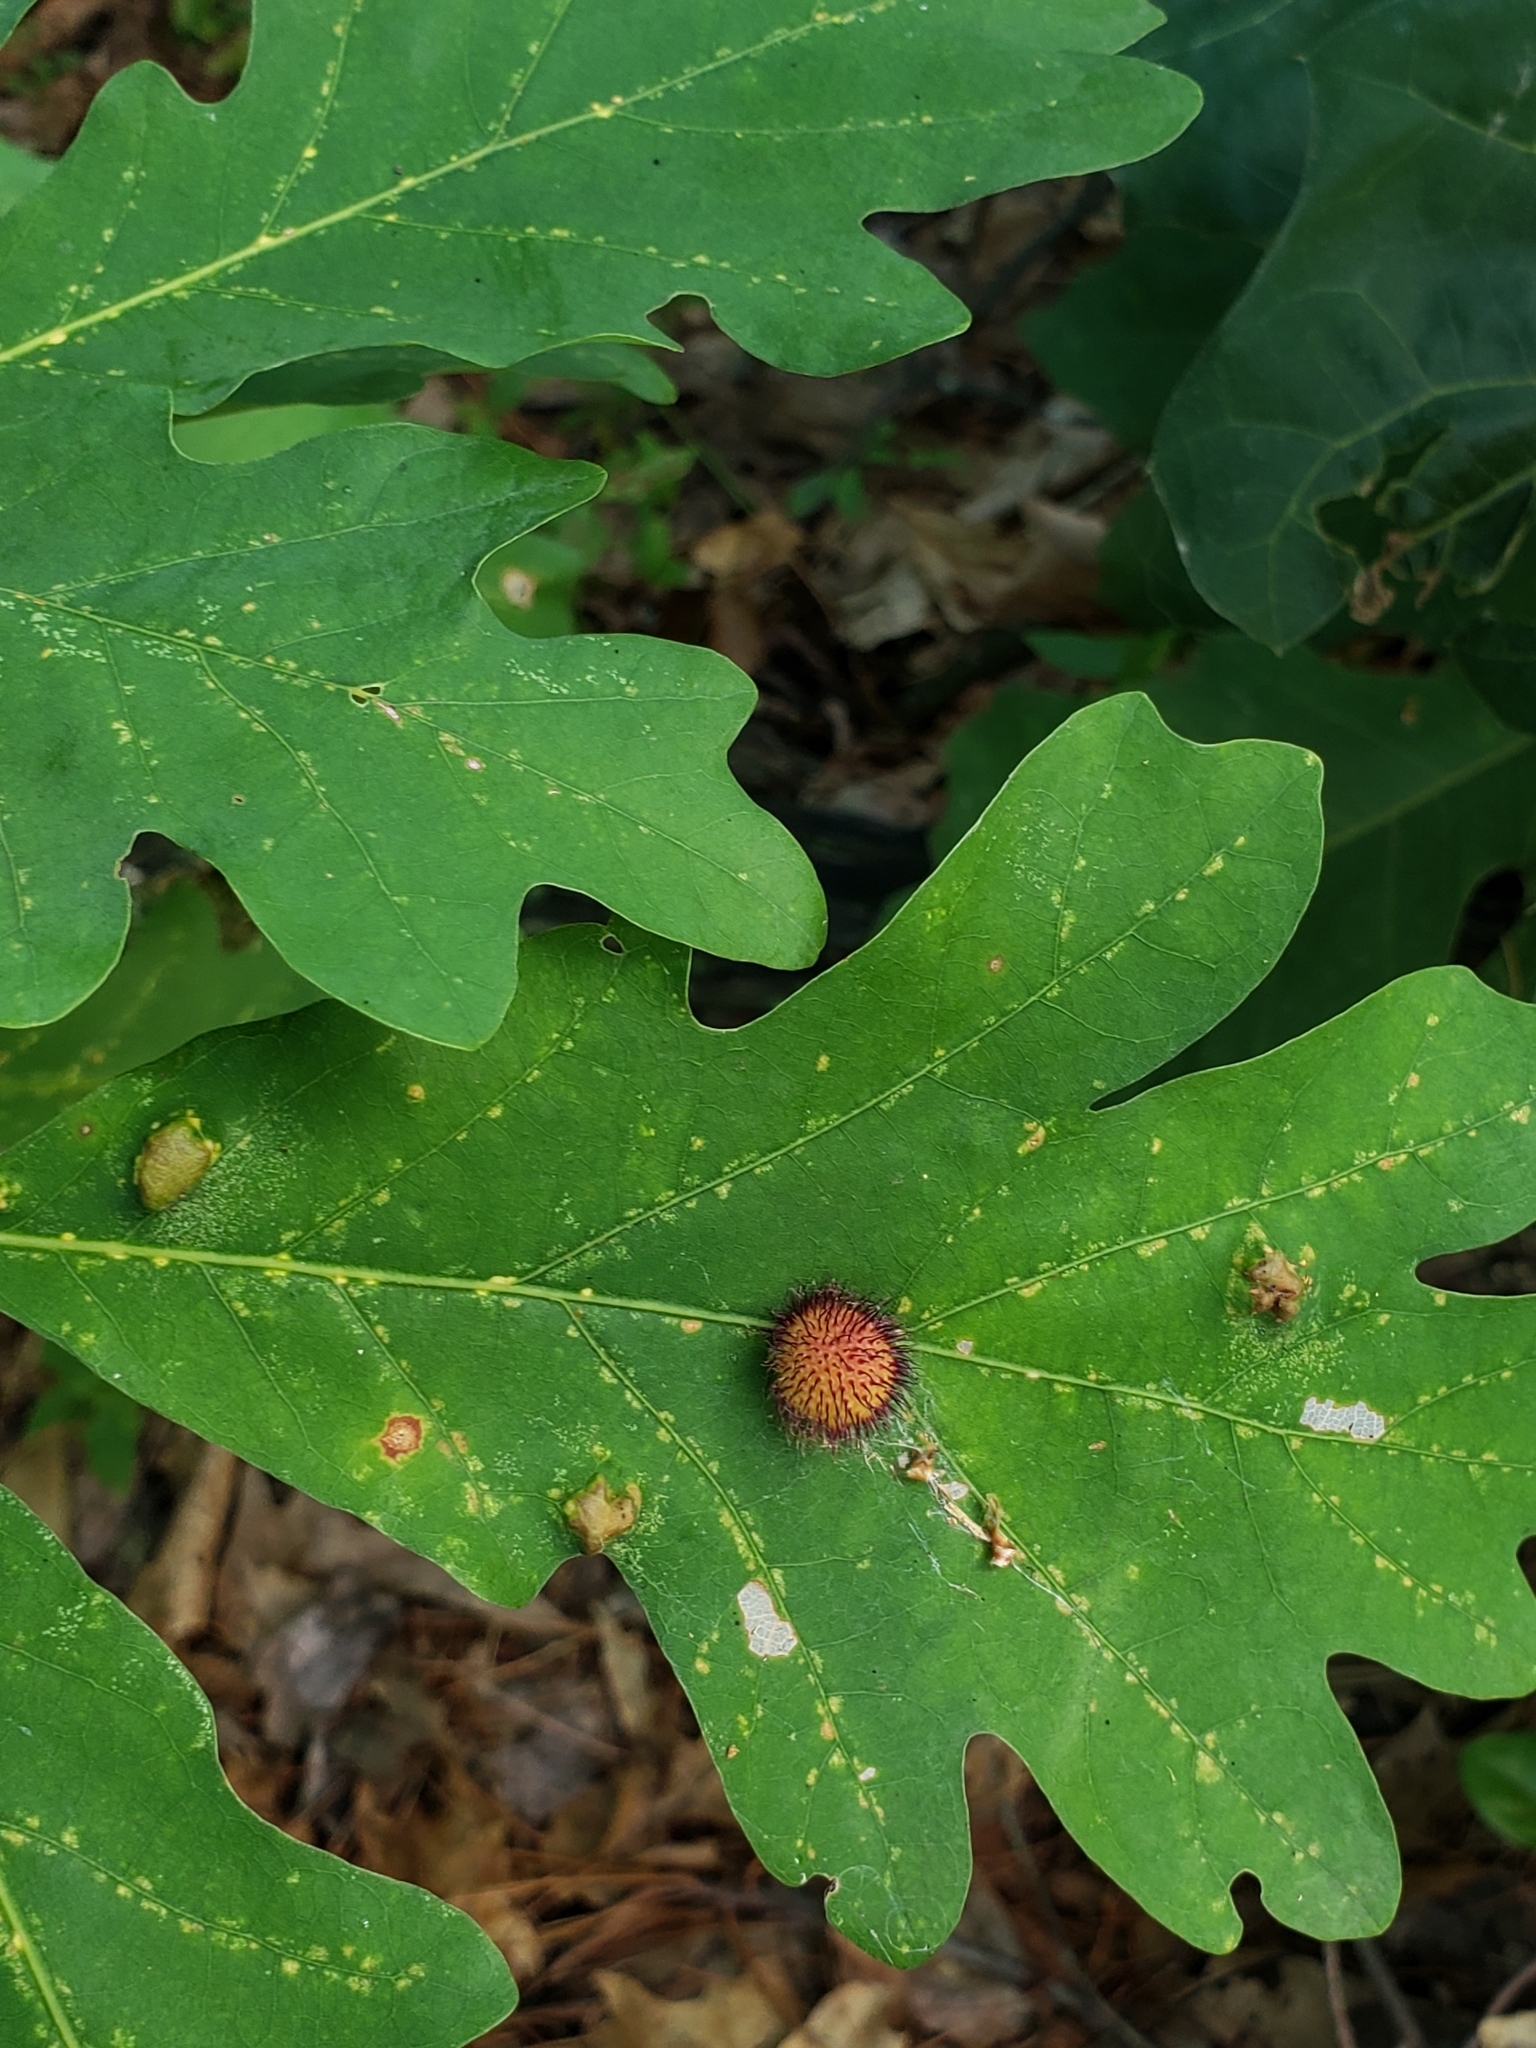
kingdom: Animalia
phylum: Arthropoda
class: Insecta
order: Hymenoptera
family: Cynipidae
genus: Acraspis
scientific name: Acraspis erinacei
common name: Hedgehog gall wasp
